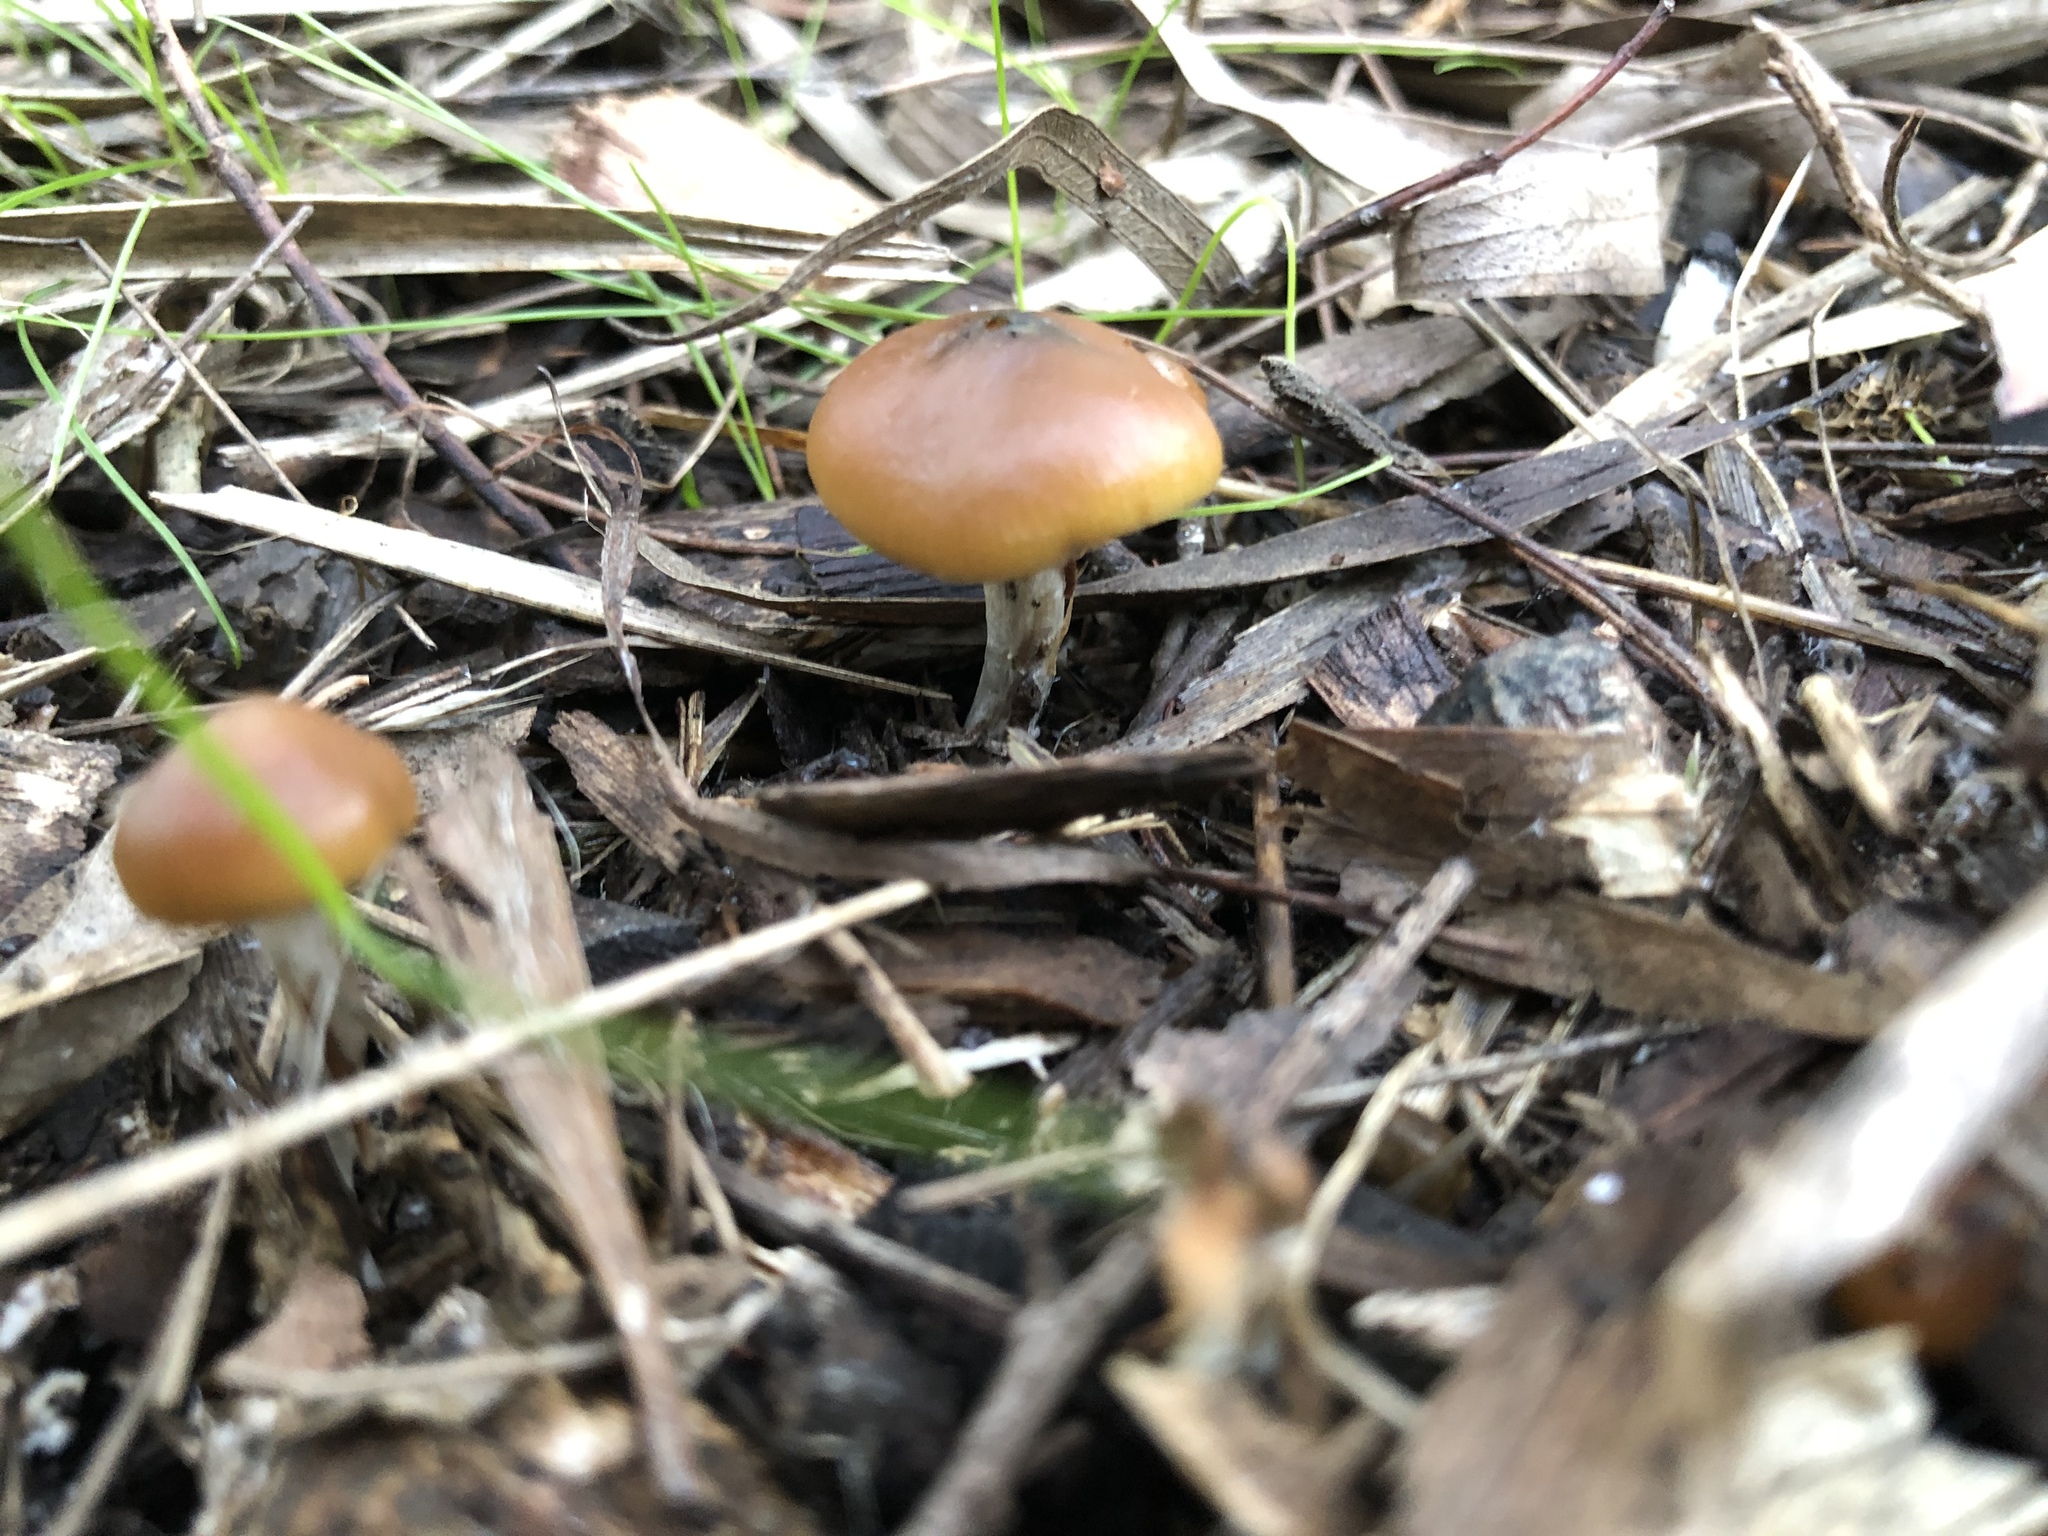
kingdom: Fungi
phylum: Basidiomycota
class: Agaricomycetes
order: Agaricales
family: Hymenogastraceae
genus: Psilocybe
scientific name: Psilocybe subaeruginosa
